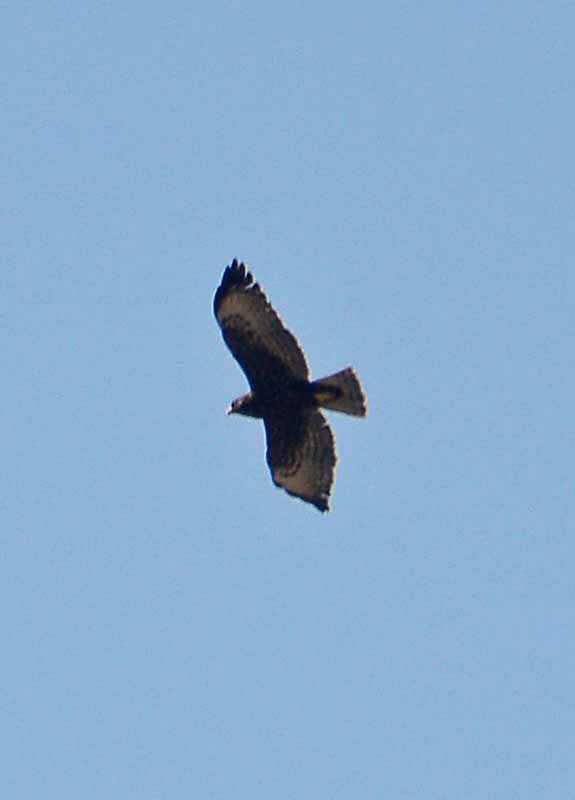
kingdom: Animalia
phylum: Chordata
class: Aves
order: Accipitriformes
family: Accipitridae
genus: Buteo
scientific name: Buteo brachyurus
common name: Short-tailed hawk
